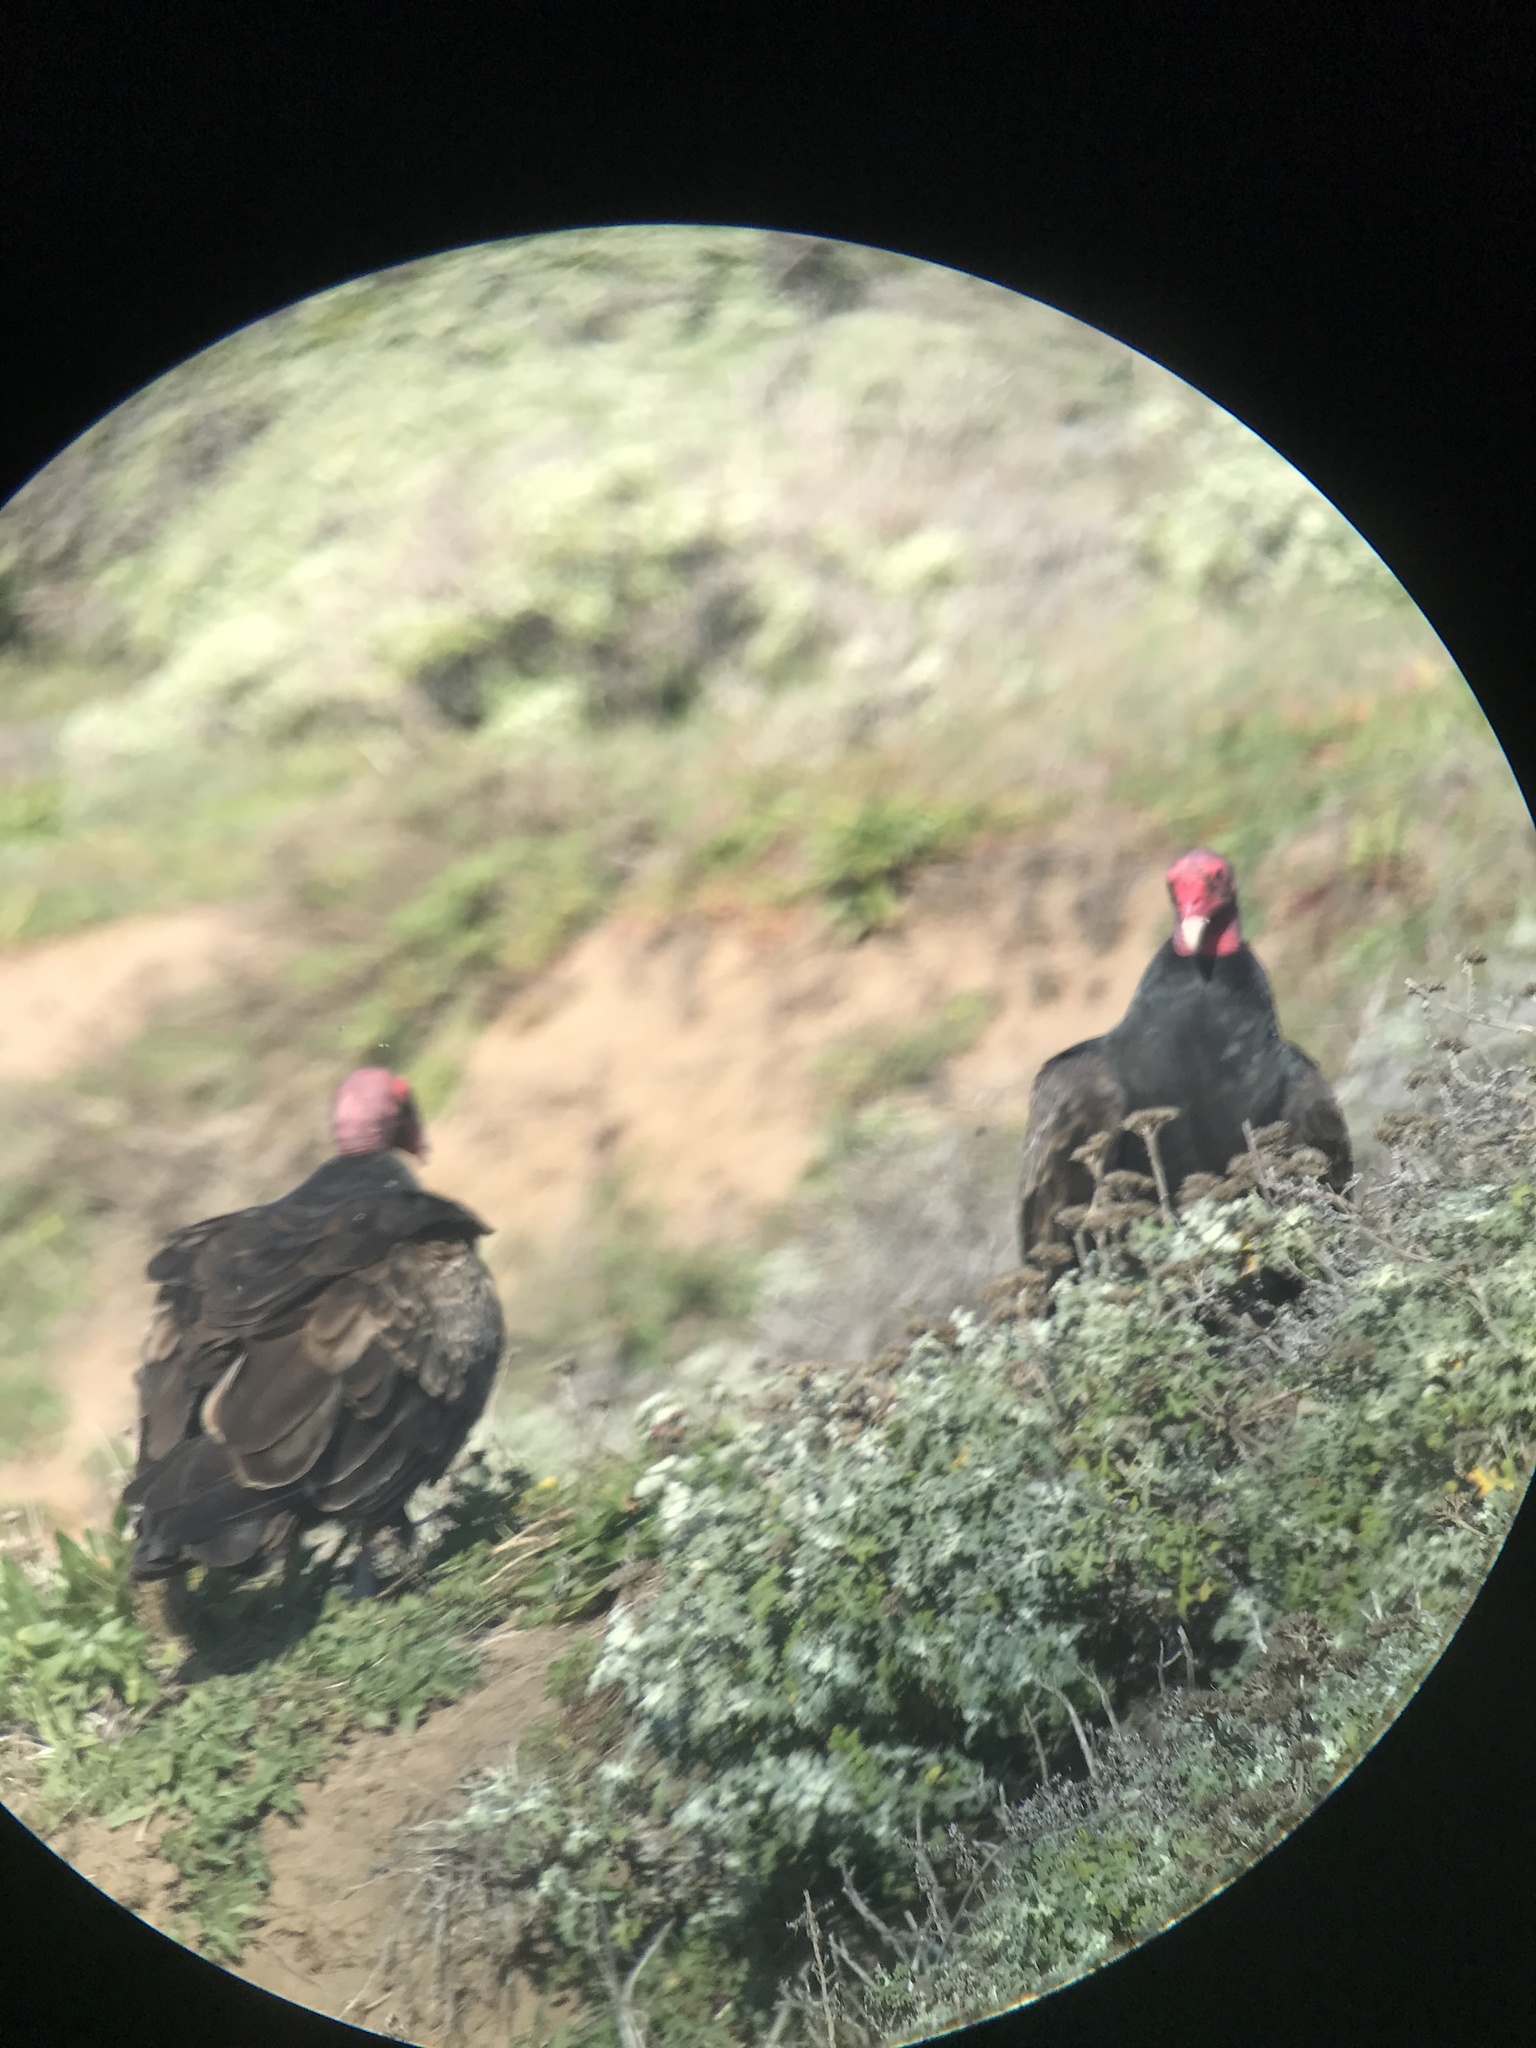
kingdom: Animalia
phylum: Chordata
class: Aves
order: Accipitriformes
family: Cathartidae
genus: Cathartes
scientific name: Cathartes aura
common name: Turkey vulture
